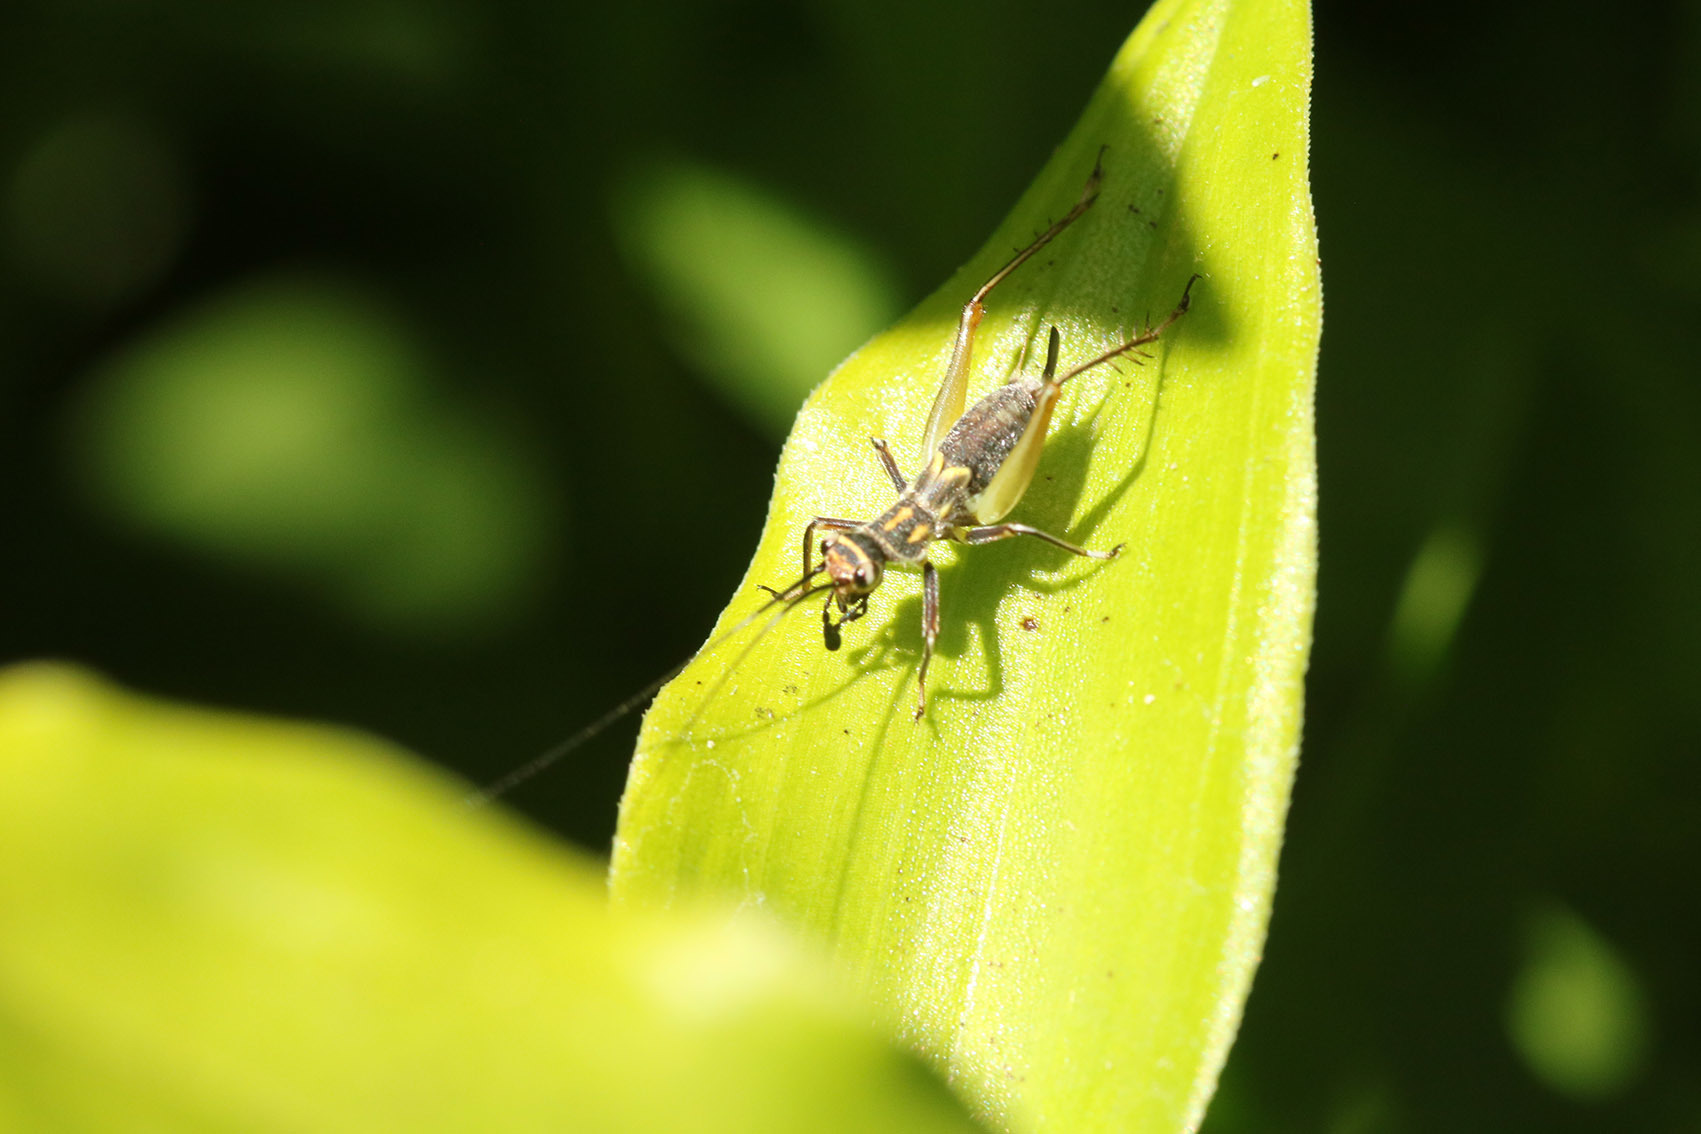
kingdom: Animalia
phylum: Arthropoda
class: Insecta
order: Orthoptera
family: Trigonidiidae
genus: Phylloscyrtus
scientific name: Phylloscyrtus amoenus
